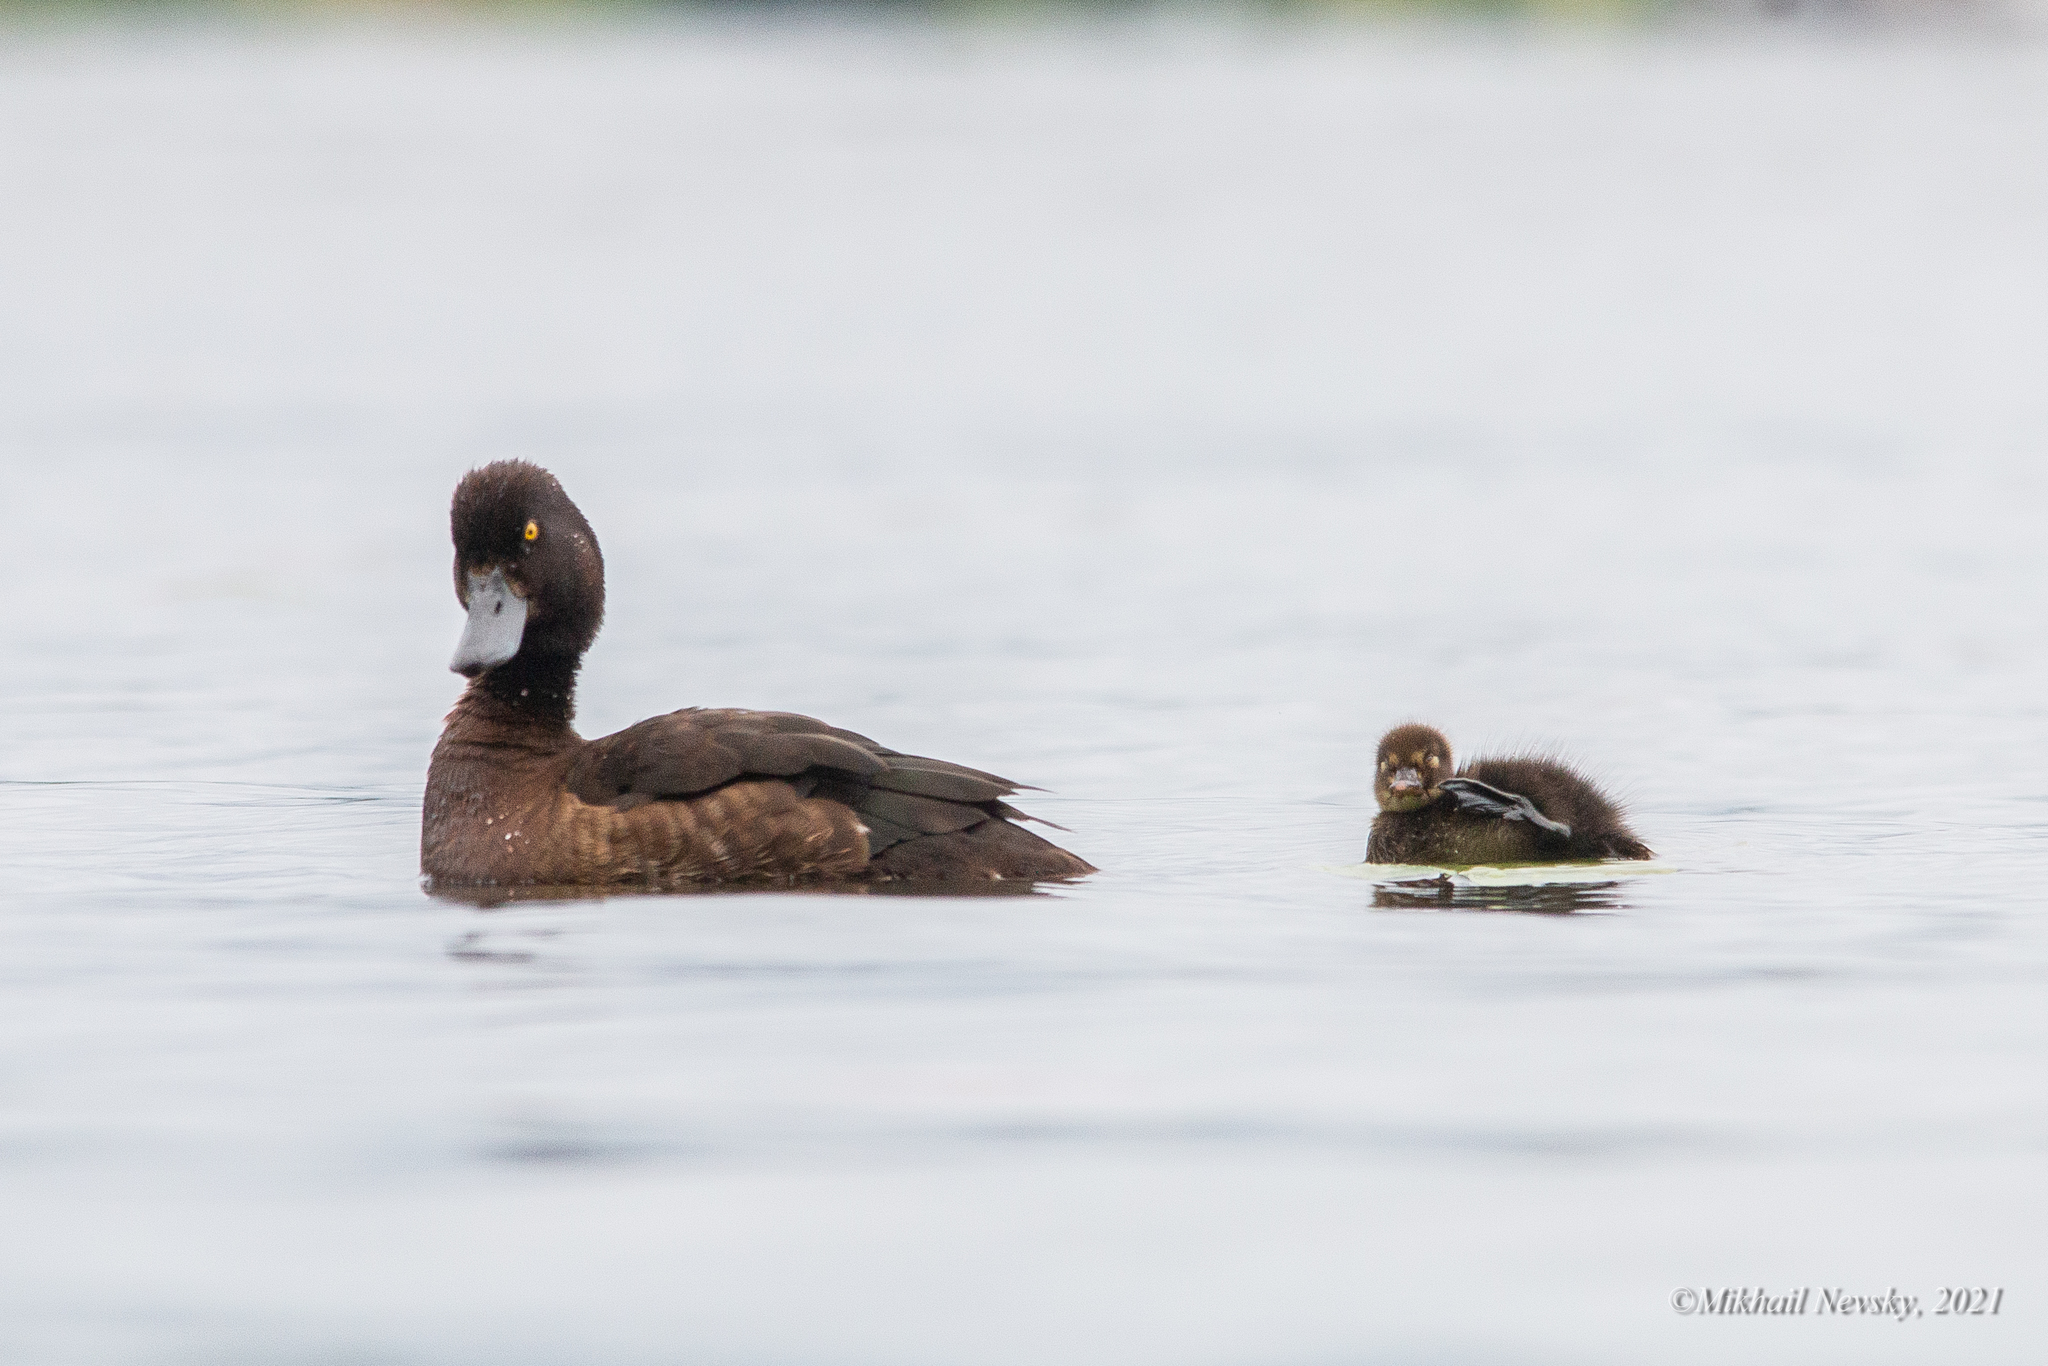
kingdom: Animalia
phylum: Chordata
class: Aves
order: Anseriformes
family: Anatidae
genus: Aythya
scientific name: Aythya fuligula
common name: Tufted duck
